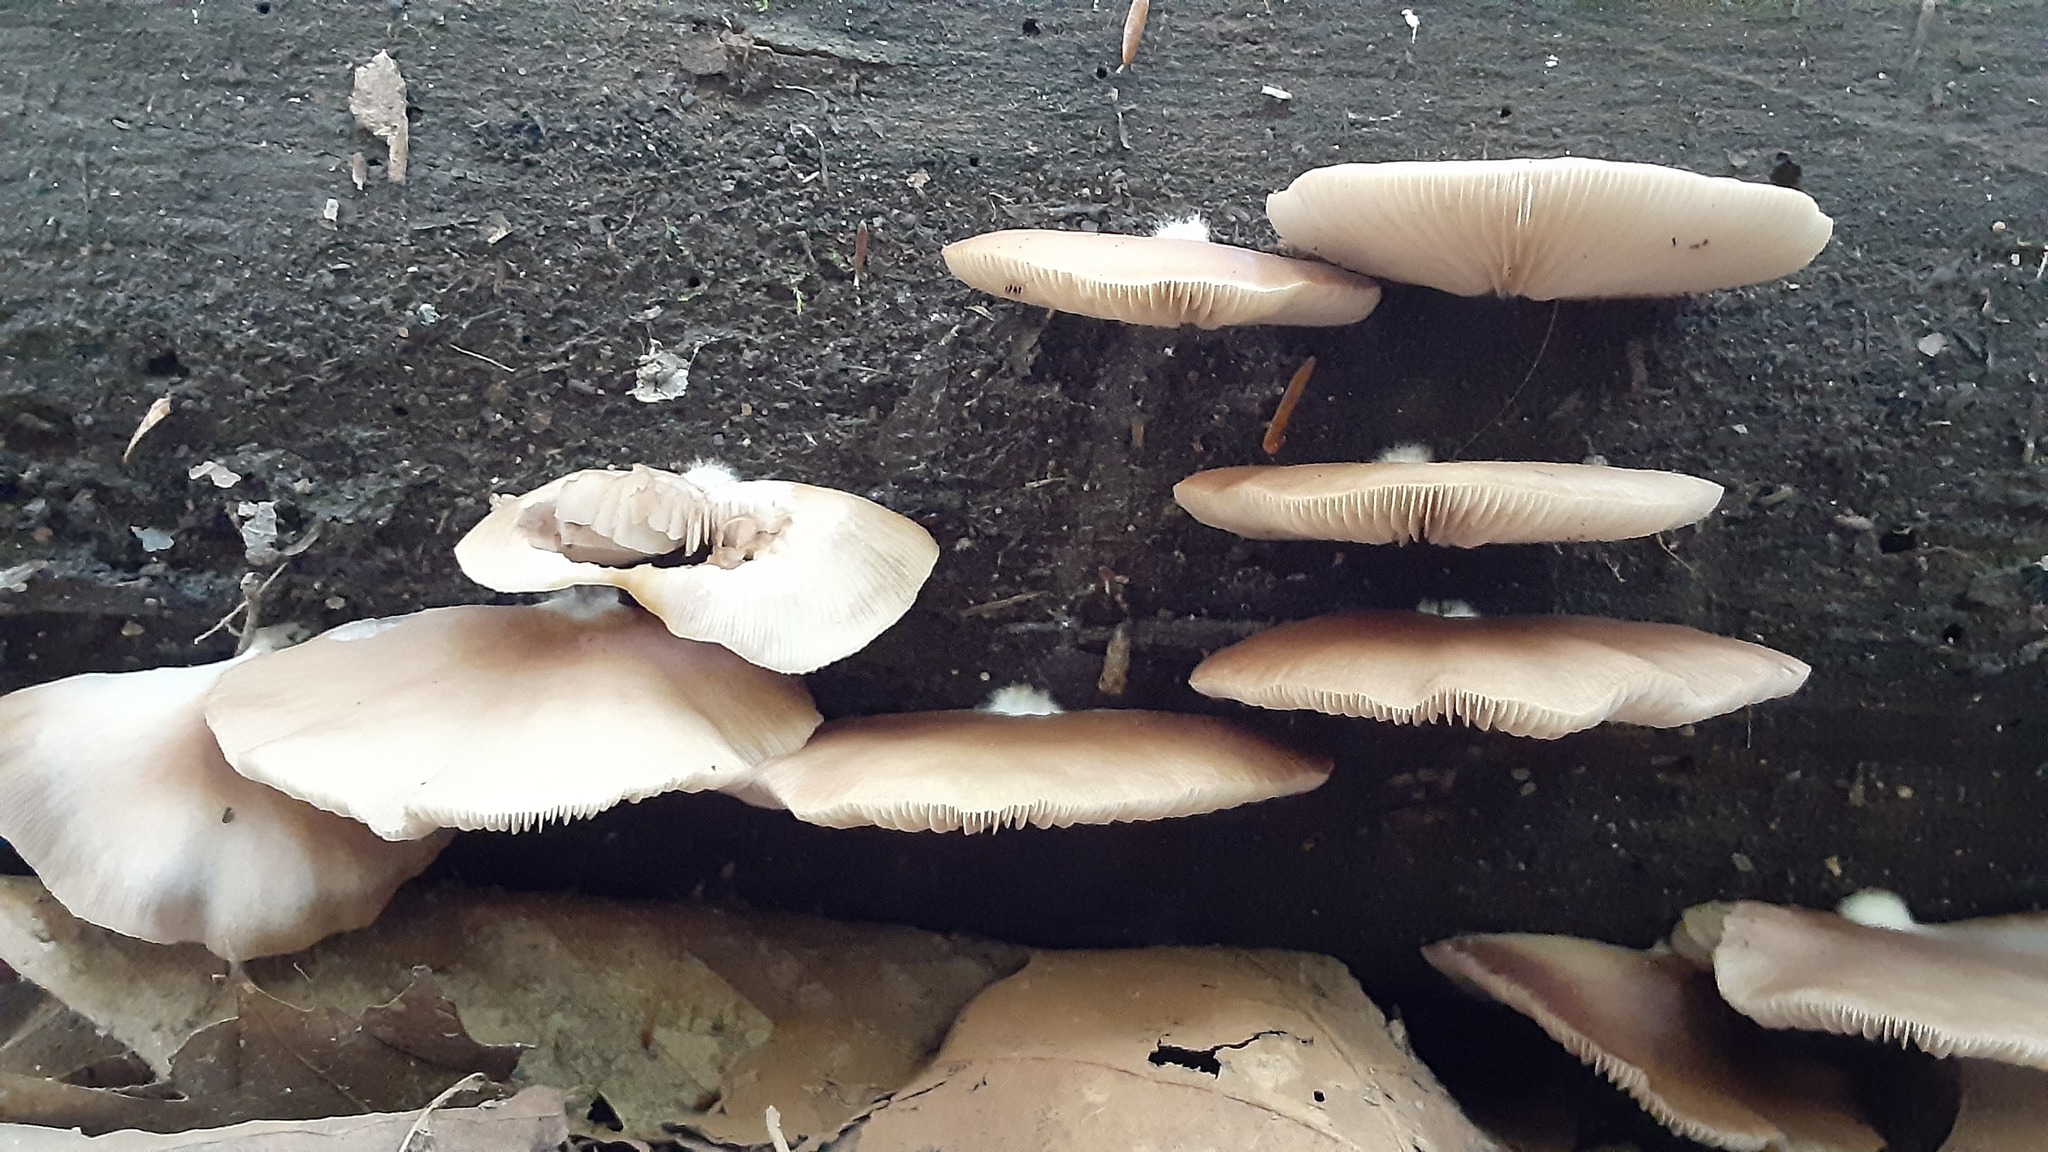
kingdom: Fungi
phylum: Basidiomycota
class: Agaricomycetes
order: Agaricales
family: Crepidotaceae
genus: Crepidotus
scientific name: Crepidotus applanatus
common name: Flat crep
